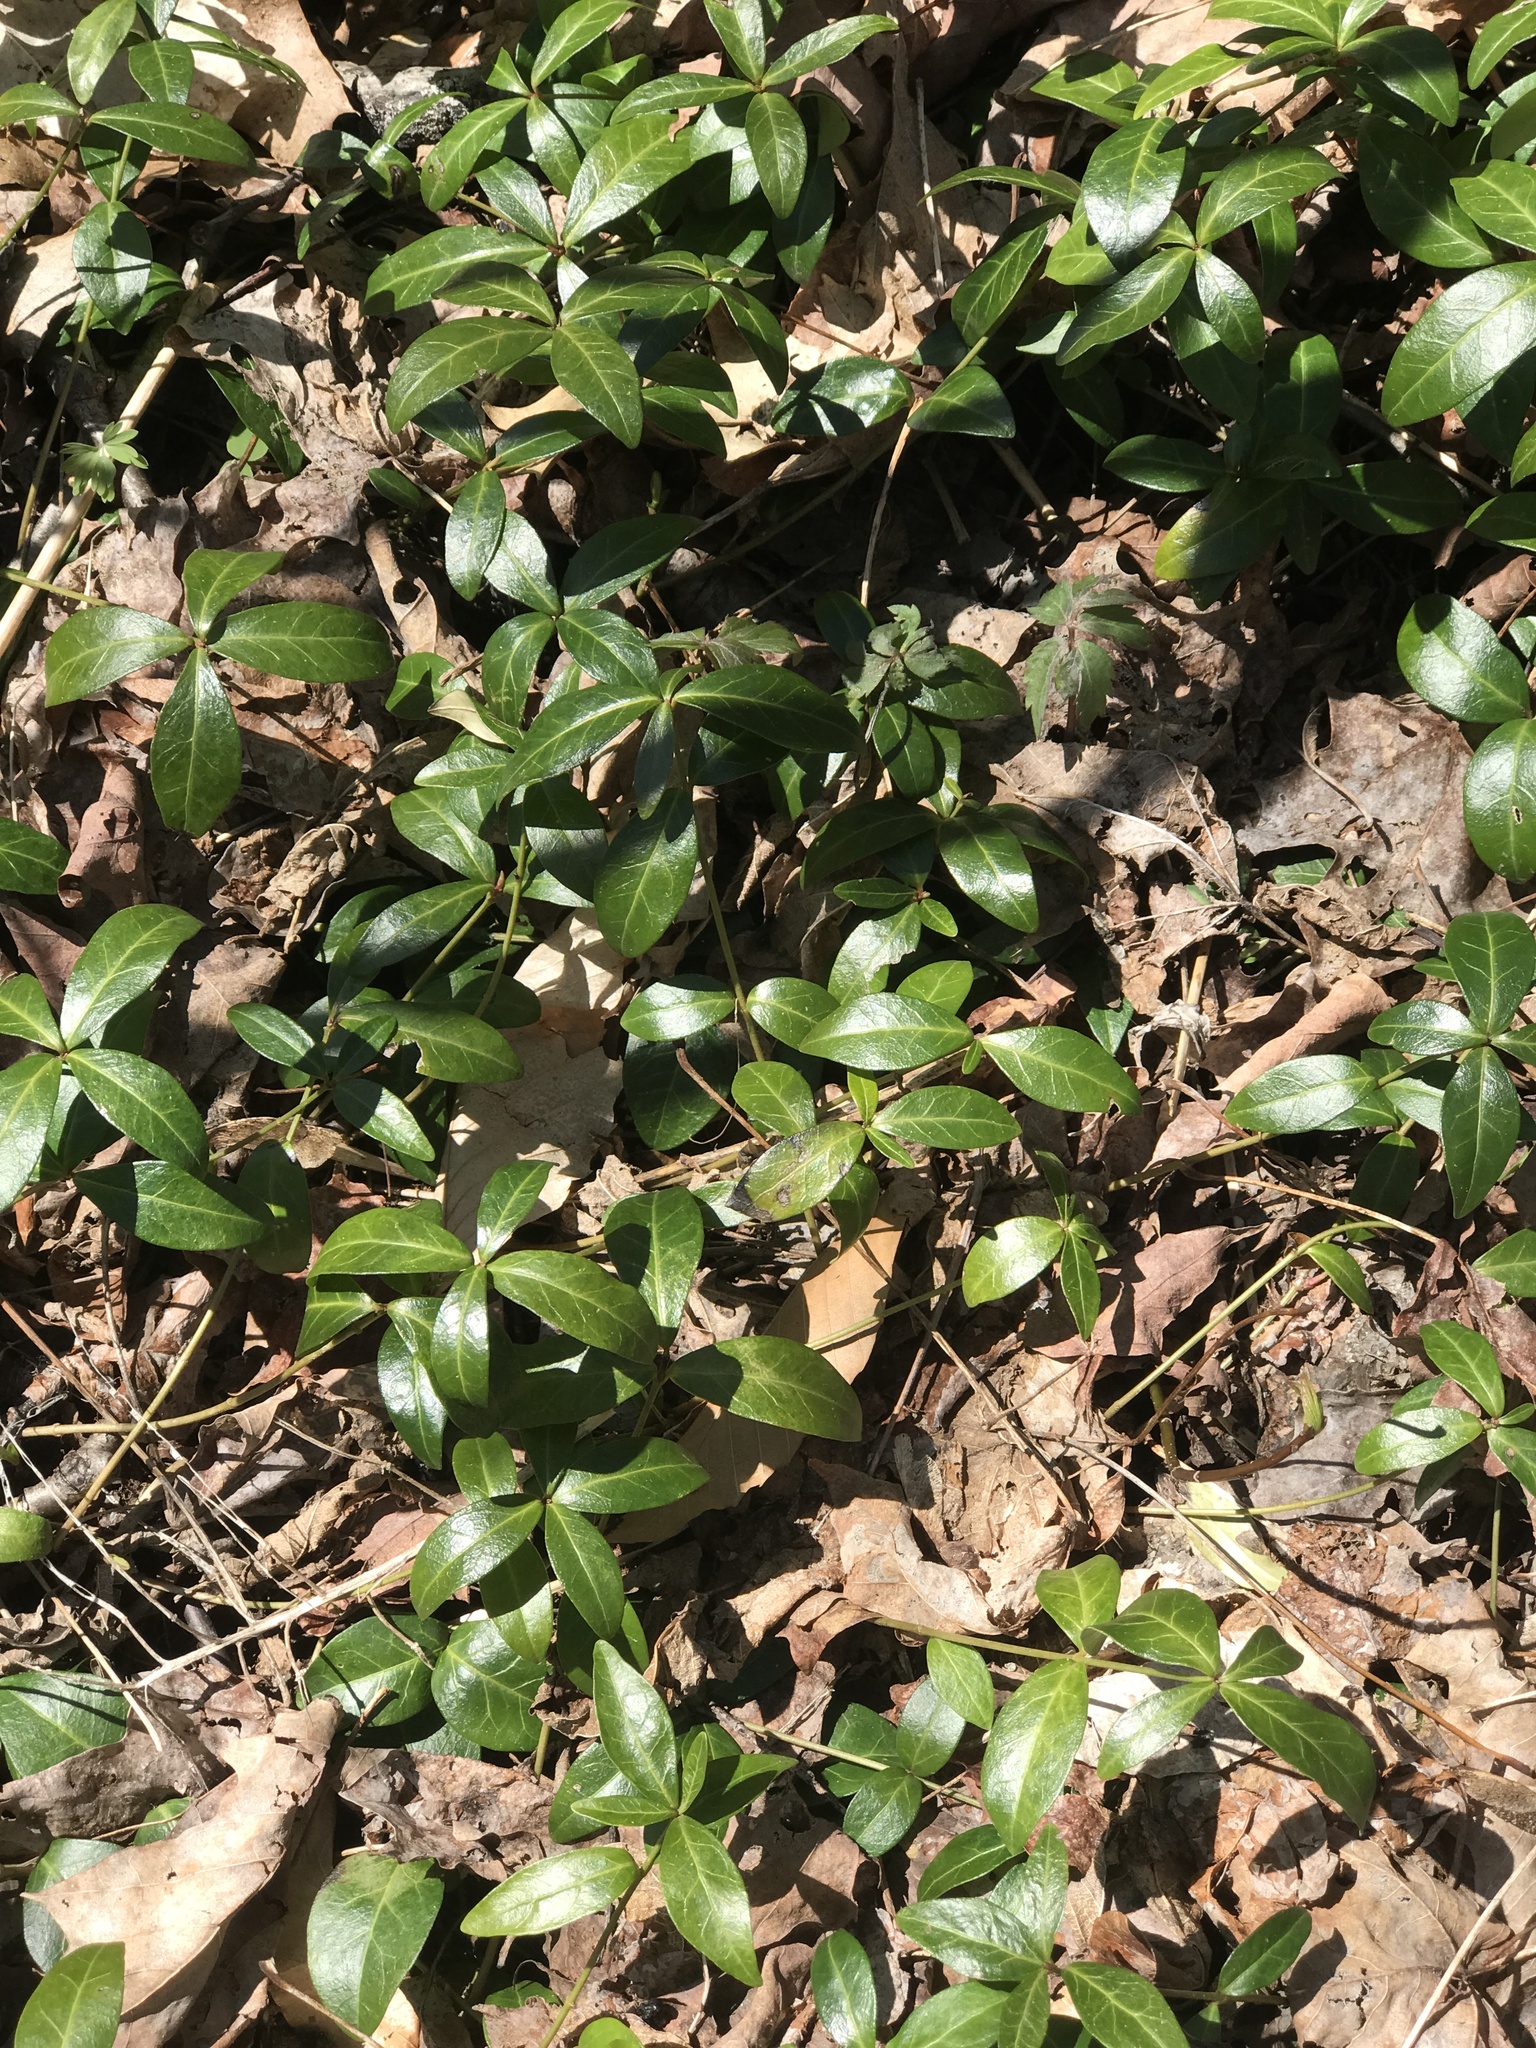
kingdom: Plantae
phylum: Tracheophyta
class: Magnoliopsida
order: Gentianales
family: Apocynaceae
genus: Vinca
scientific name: Vinca minor
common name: Lesser periwinkle
